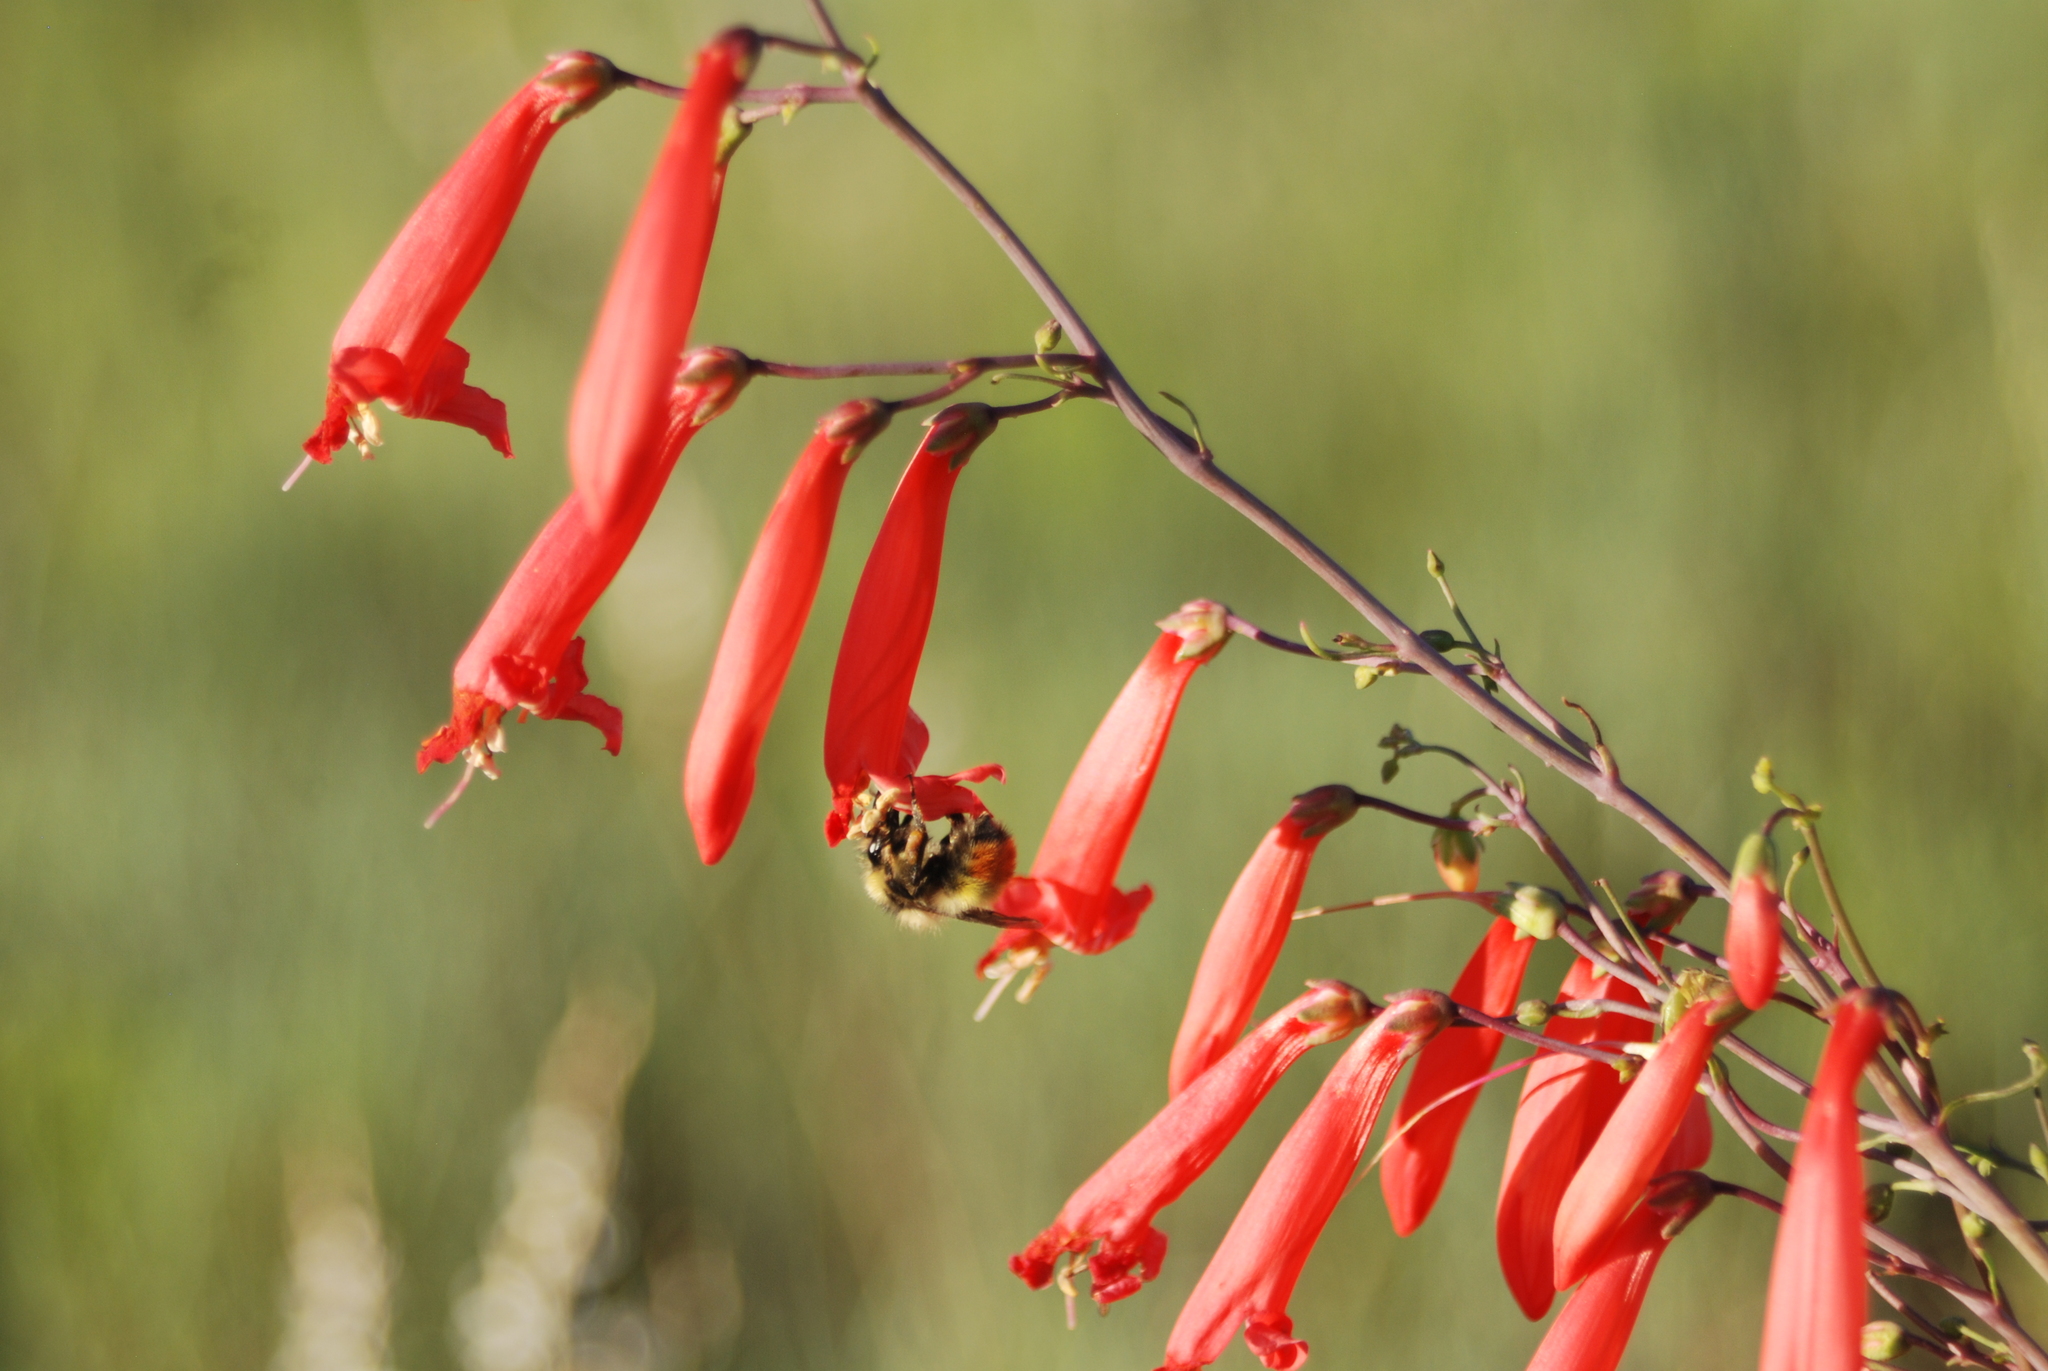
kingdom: Animalia
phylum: Arthropoda
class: Insecta
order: Hymenoptera
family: Apidae
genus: Pyrobombus
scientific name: Pyrobombus
